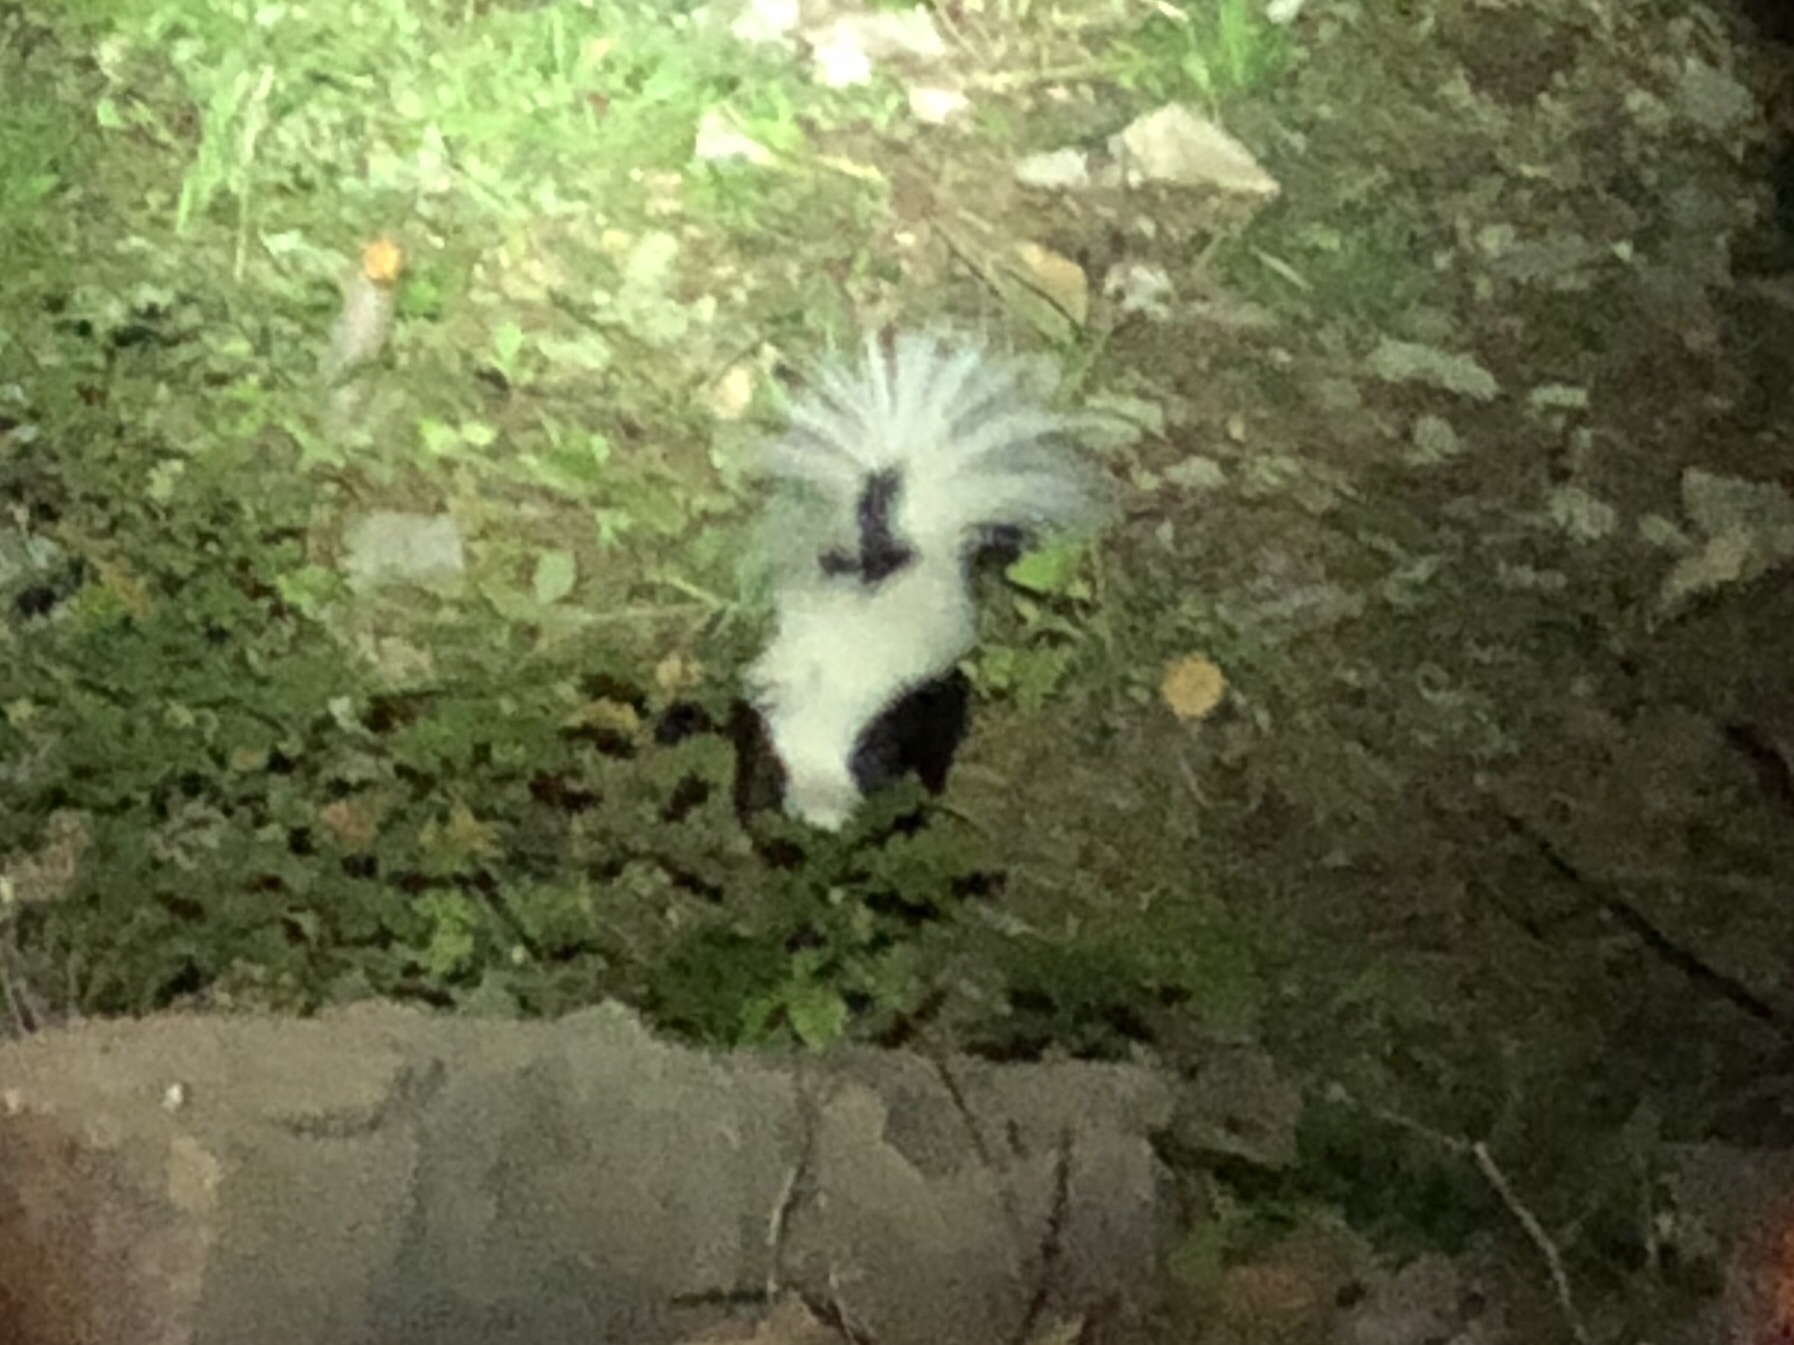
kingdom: Animalia
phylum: Chordata
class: Mammalia
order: Carnivora
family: Mephitidae
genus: Mephitis
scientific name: Mephitis mephitis
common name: Striped skunk
